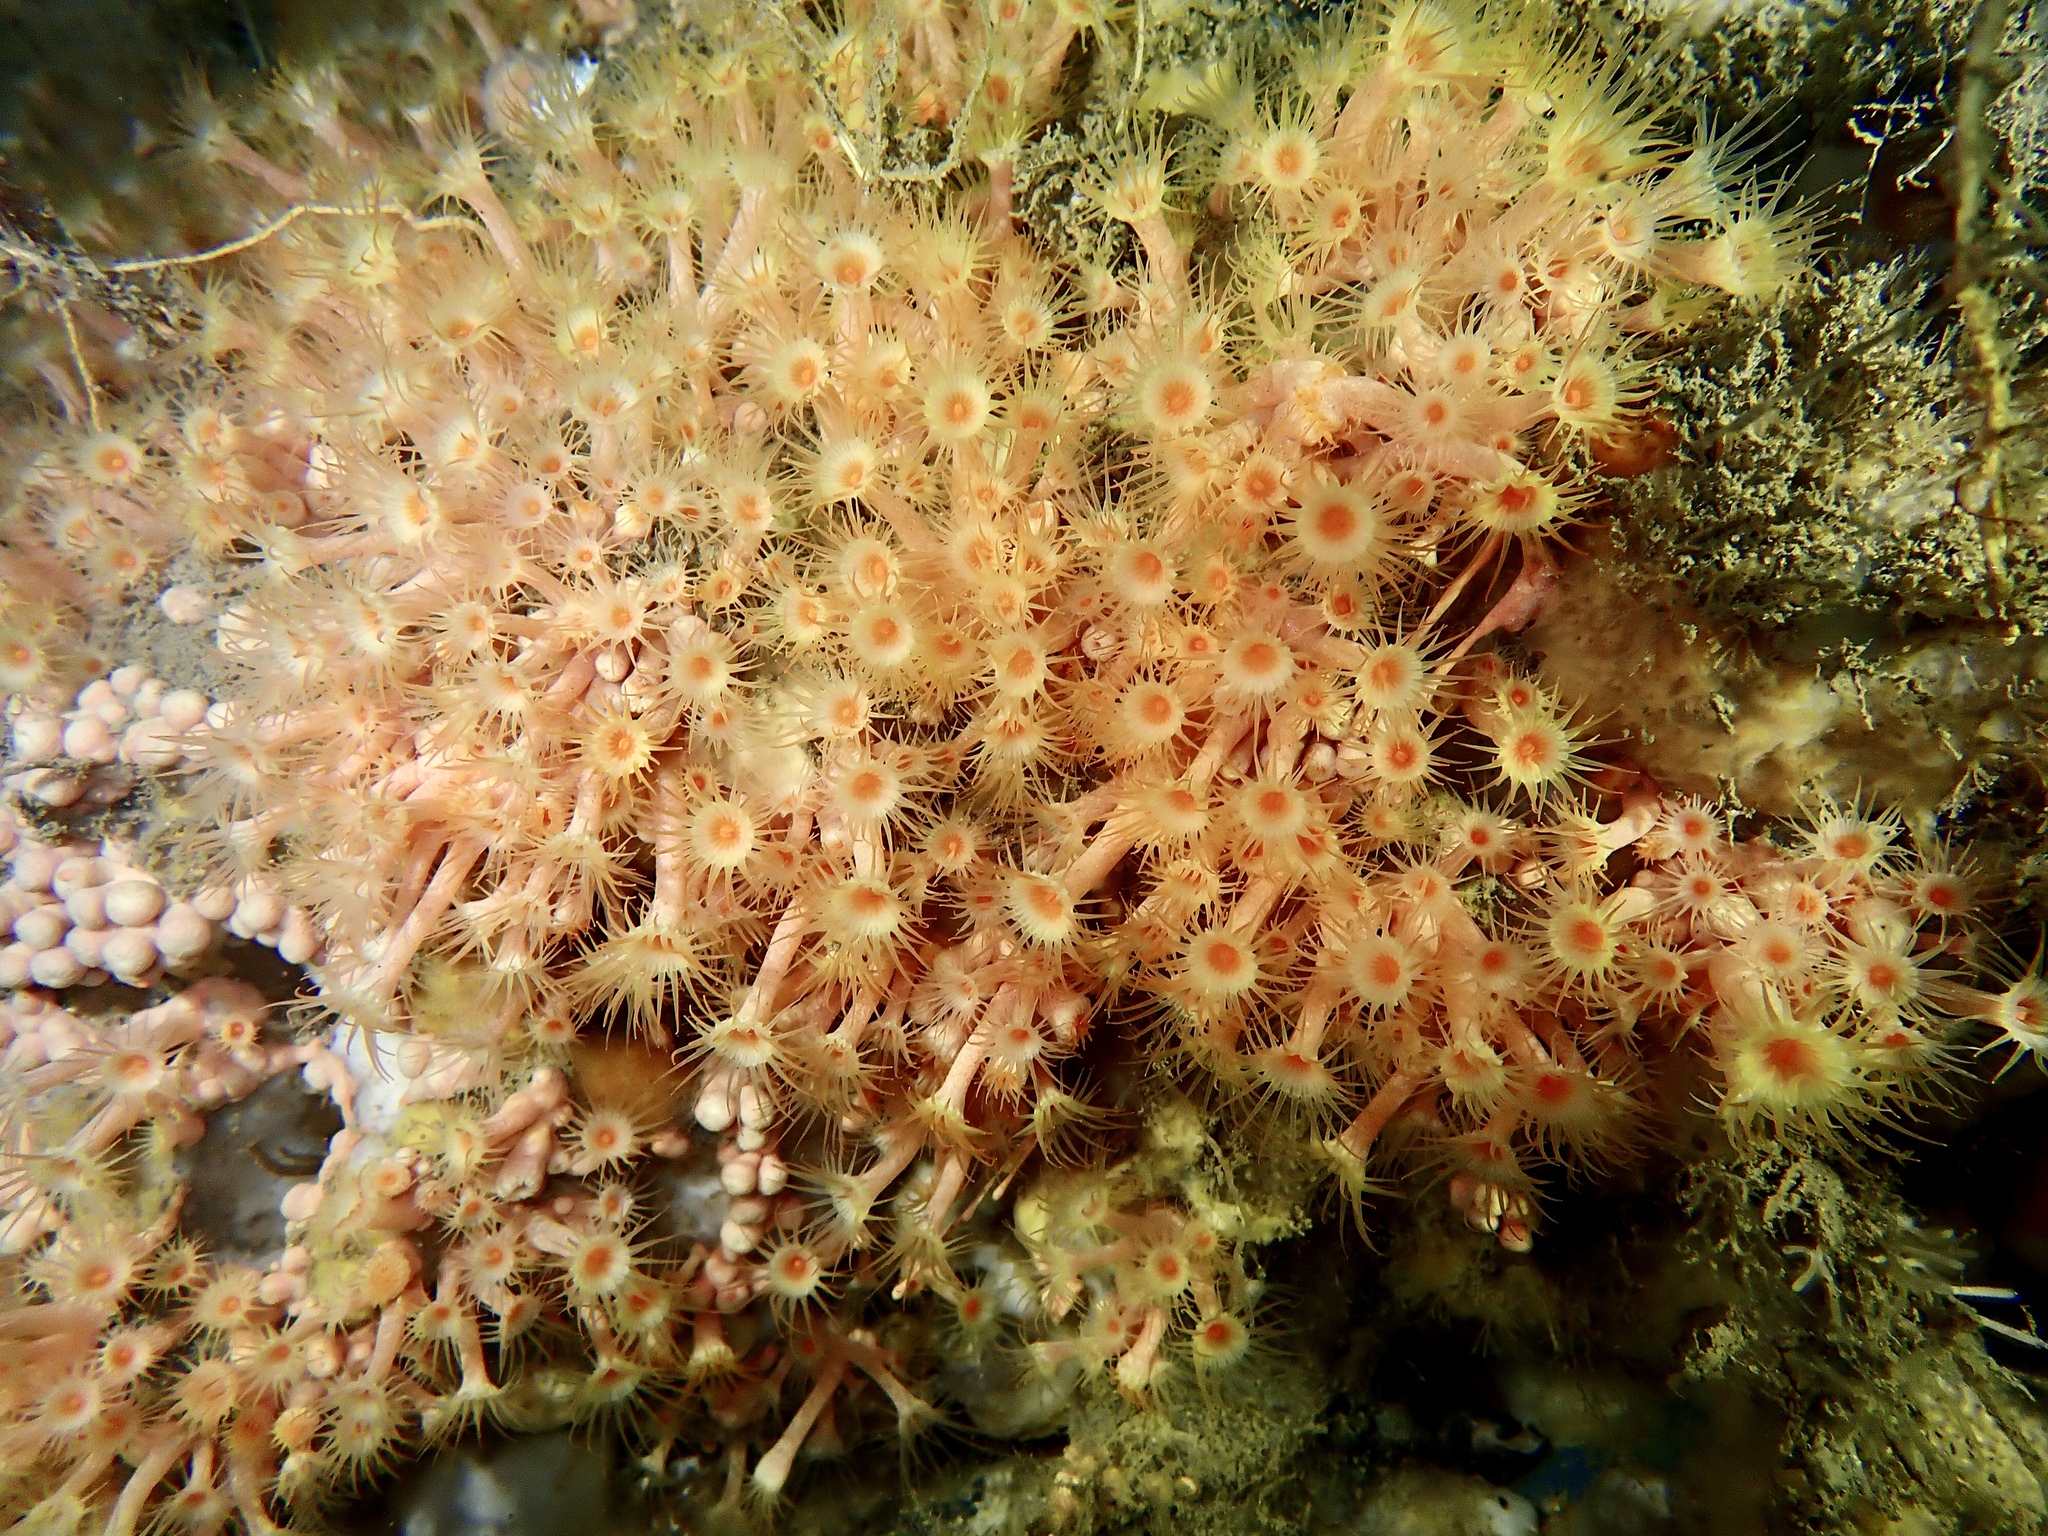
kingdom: Animalia
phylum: Cnidaria
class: Anthozoa
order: Zoantharia
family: Parazoanthidae
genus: Parazoanthus
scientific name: Parazoanthus axinellae
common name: Yellow cluster anemone
